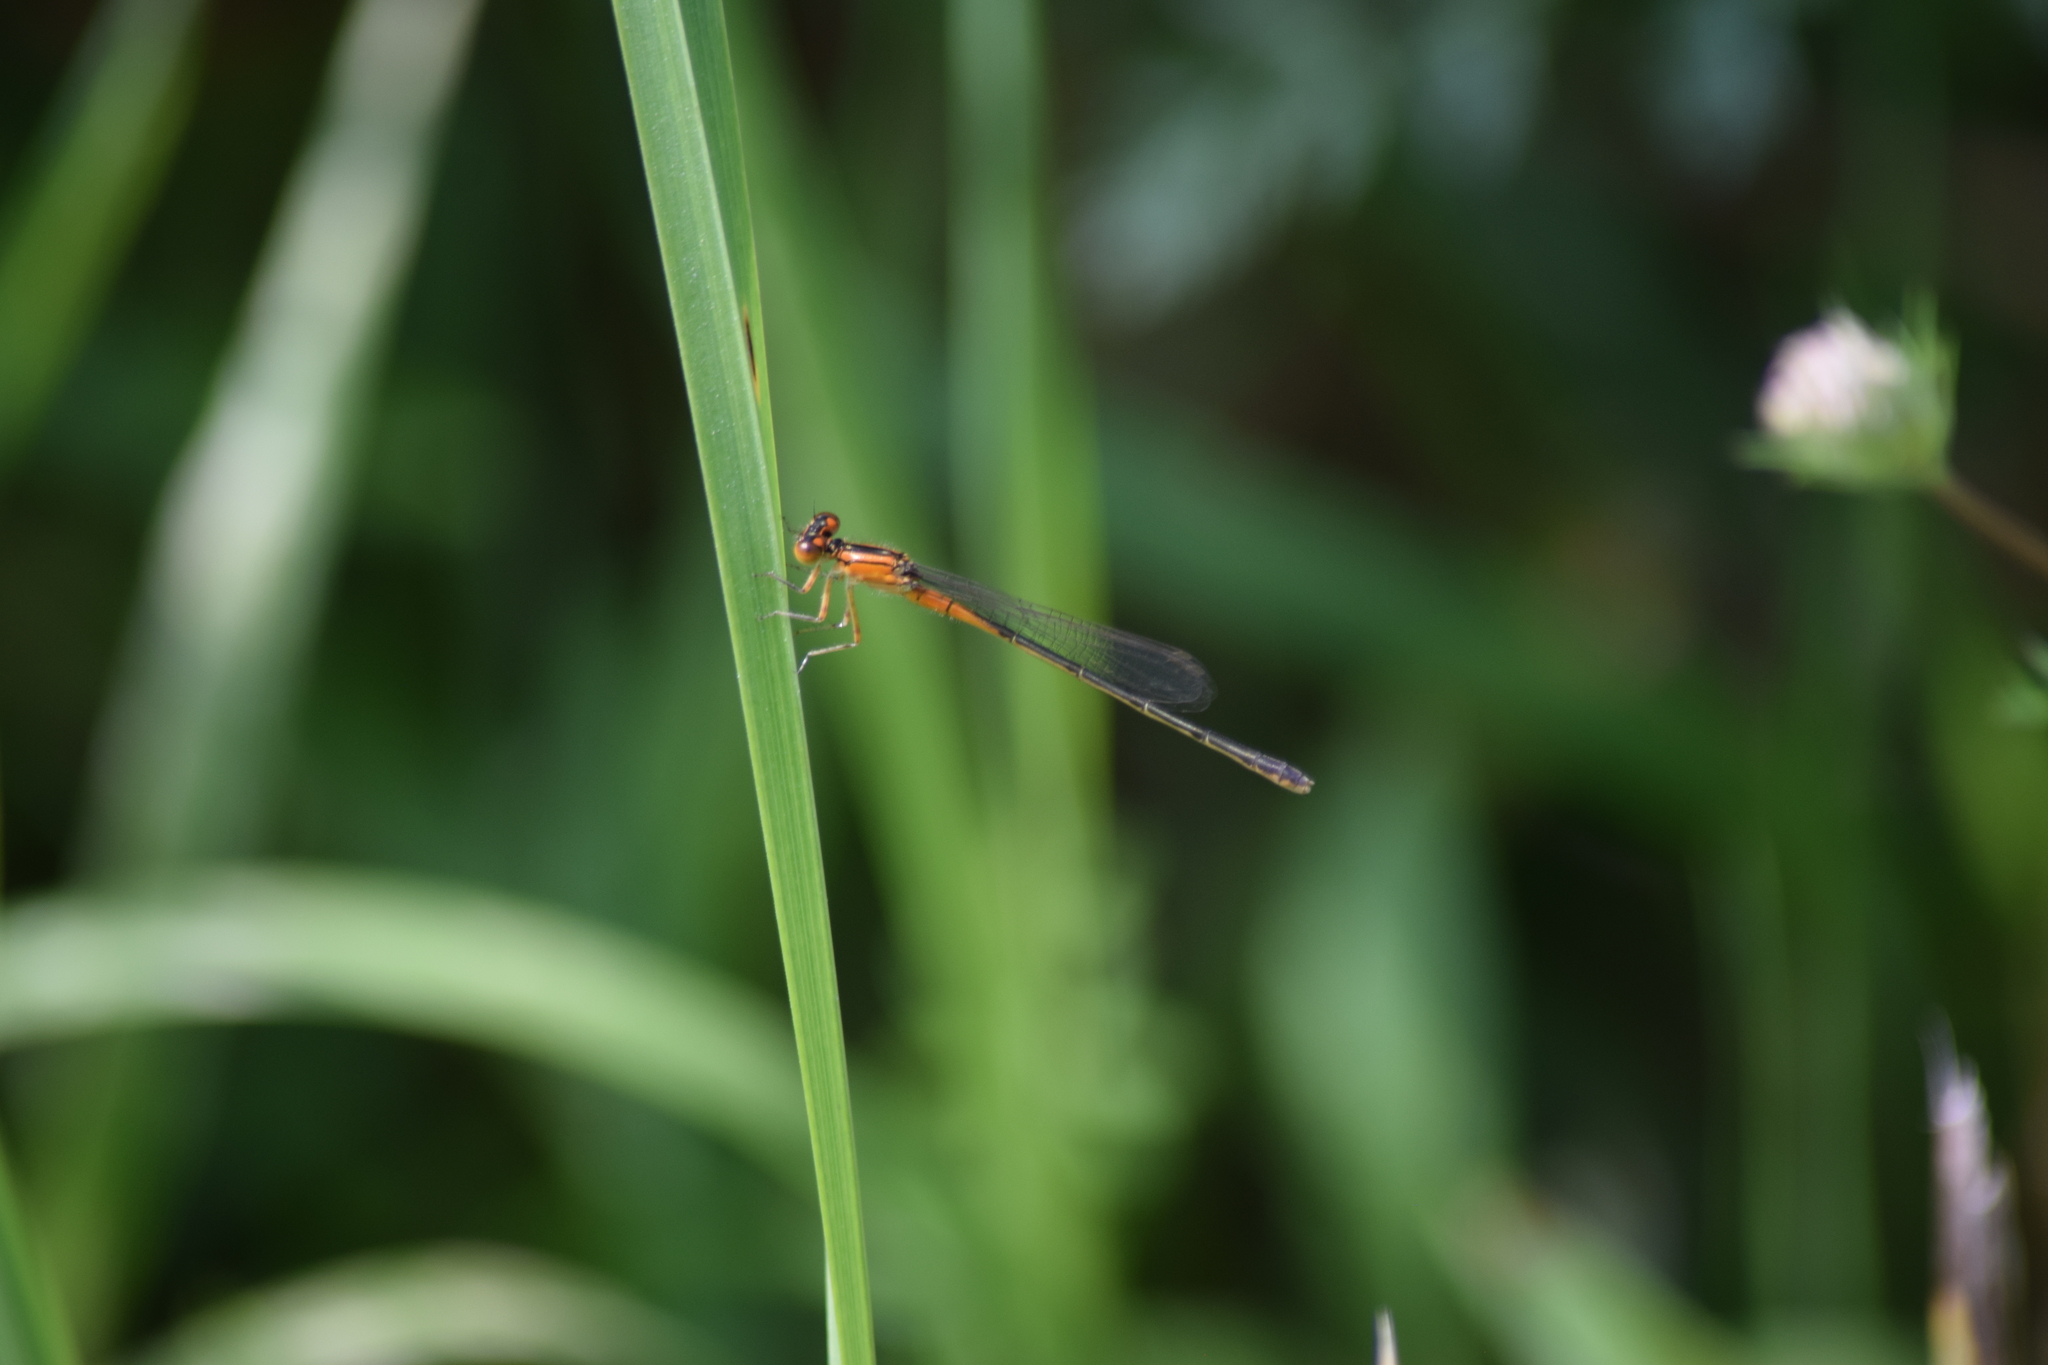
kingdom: Animalia
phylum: Arthropoda
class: Insecta
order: Odonata
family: Coenagrionidae
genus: Ischnura
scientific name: Ischnura verticalis
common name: Eastern forktail
